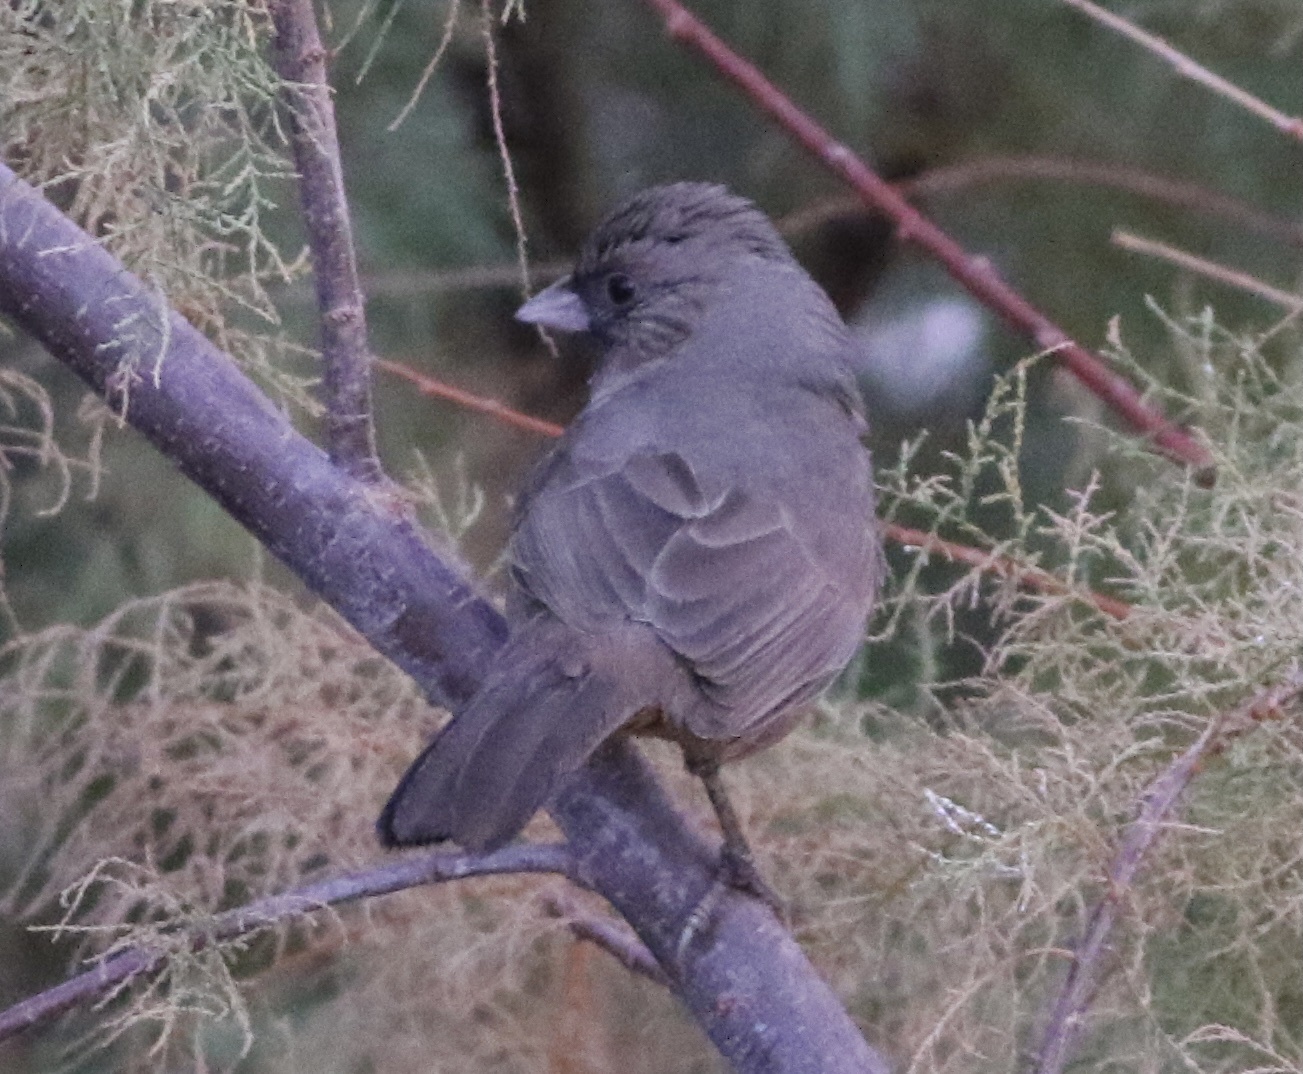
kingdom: Animalia
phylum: Chordata
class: Aves
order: Passeriformes
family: Passerellidae
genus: Melozone
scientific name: Melozone aberti
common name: Abert's towhee
